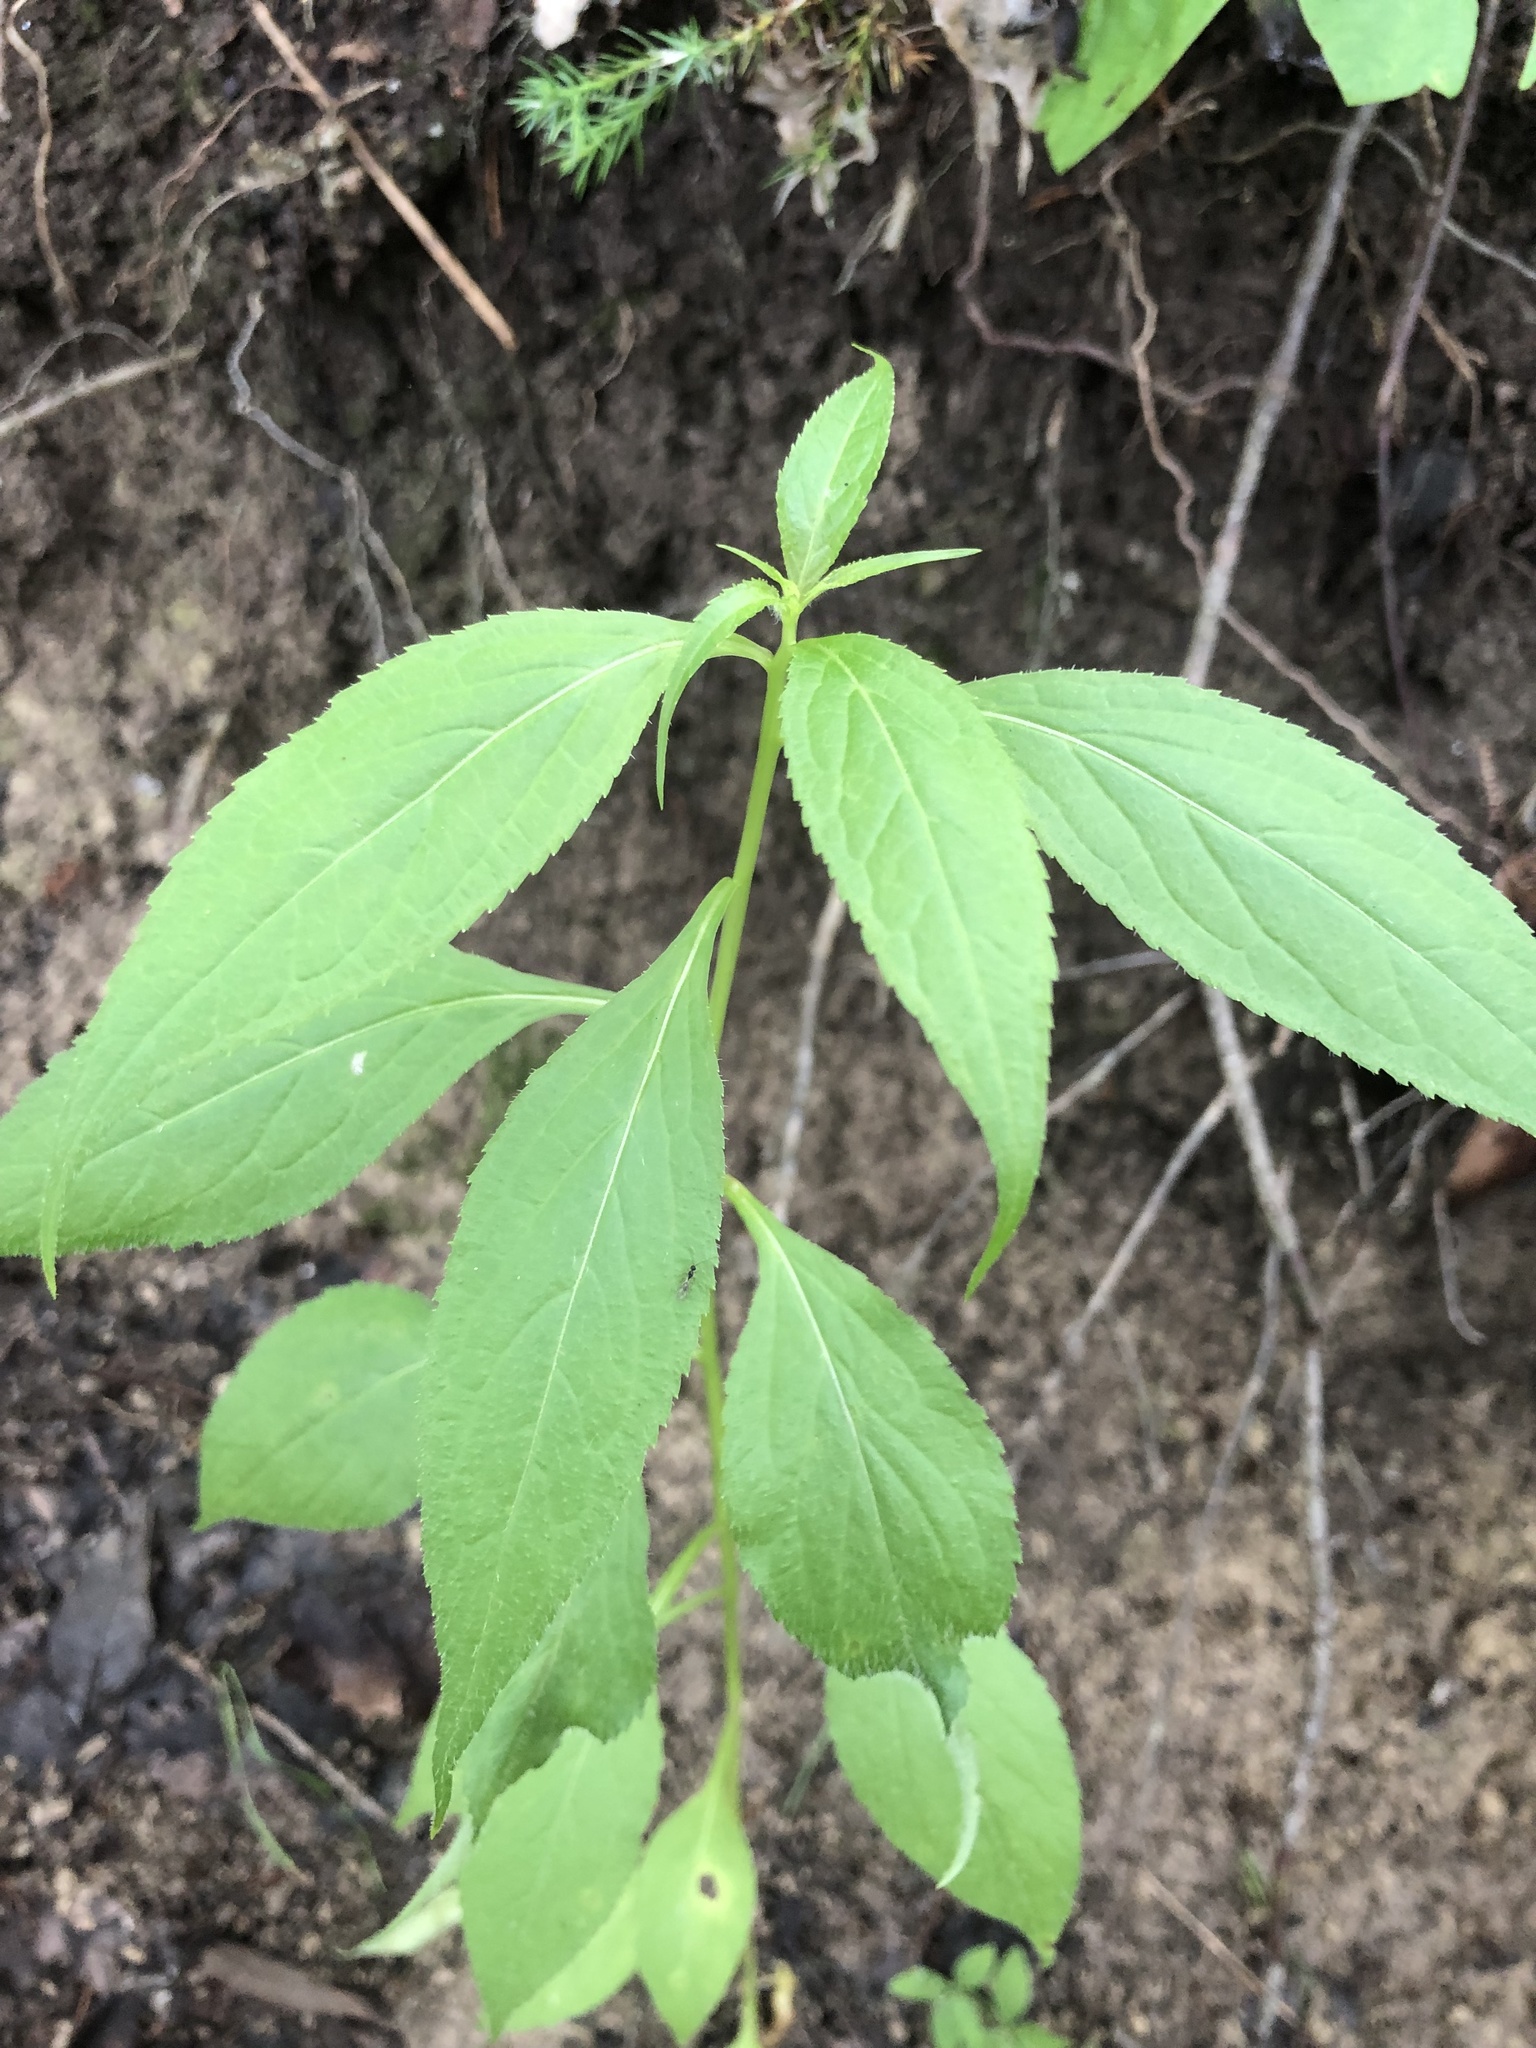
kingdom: Plantae
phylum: Tracheophyta
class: Magnoliopsida
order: Asterales
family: Campanulaceae
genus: Campanulastrum
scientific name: Campanulastrum americanum
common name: American bellflower
